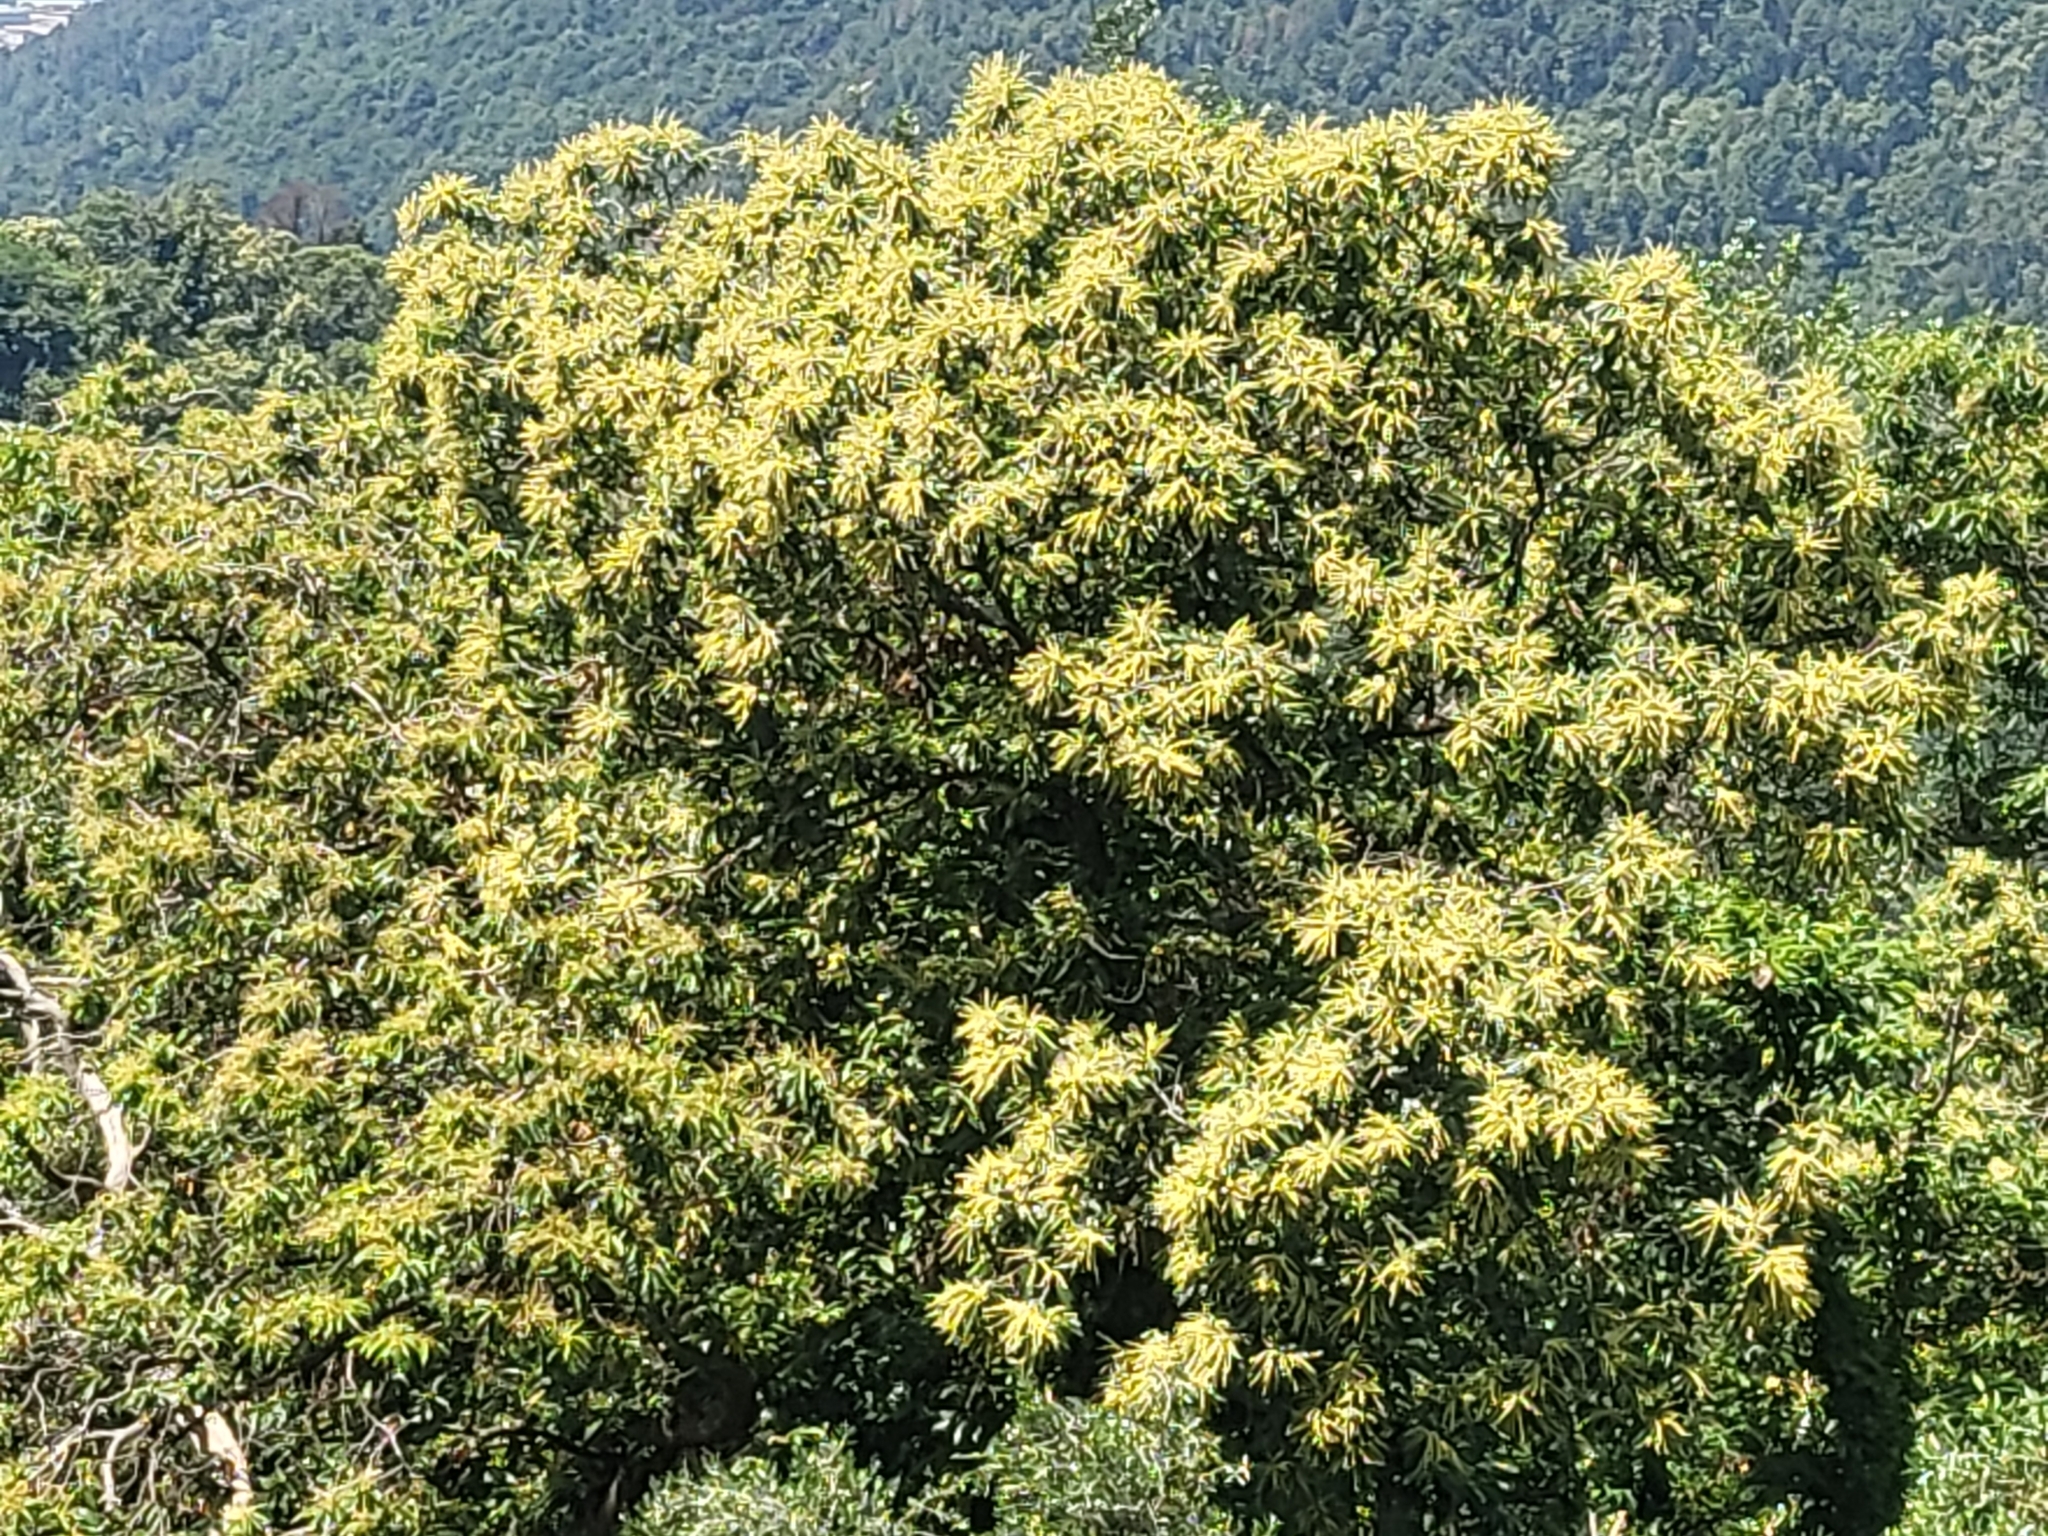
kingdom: Plantae
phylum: Tracheophyta
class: Magnoliopsida
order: Fagales
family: Fagaceae
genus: Castanea
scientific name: Castanea sativa
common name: Sweet chestnut
